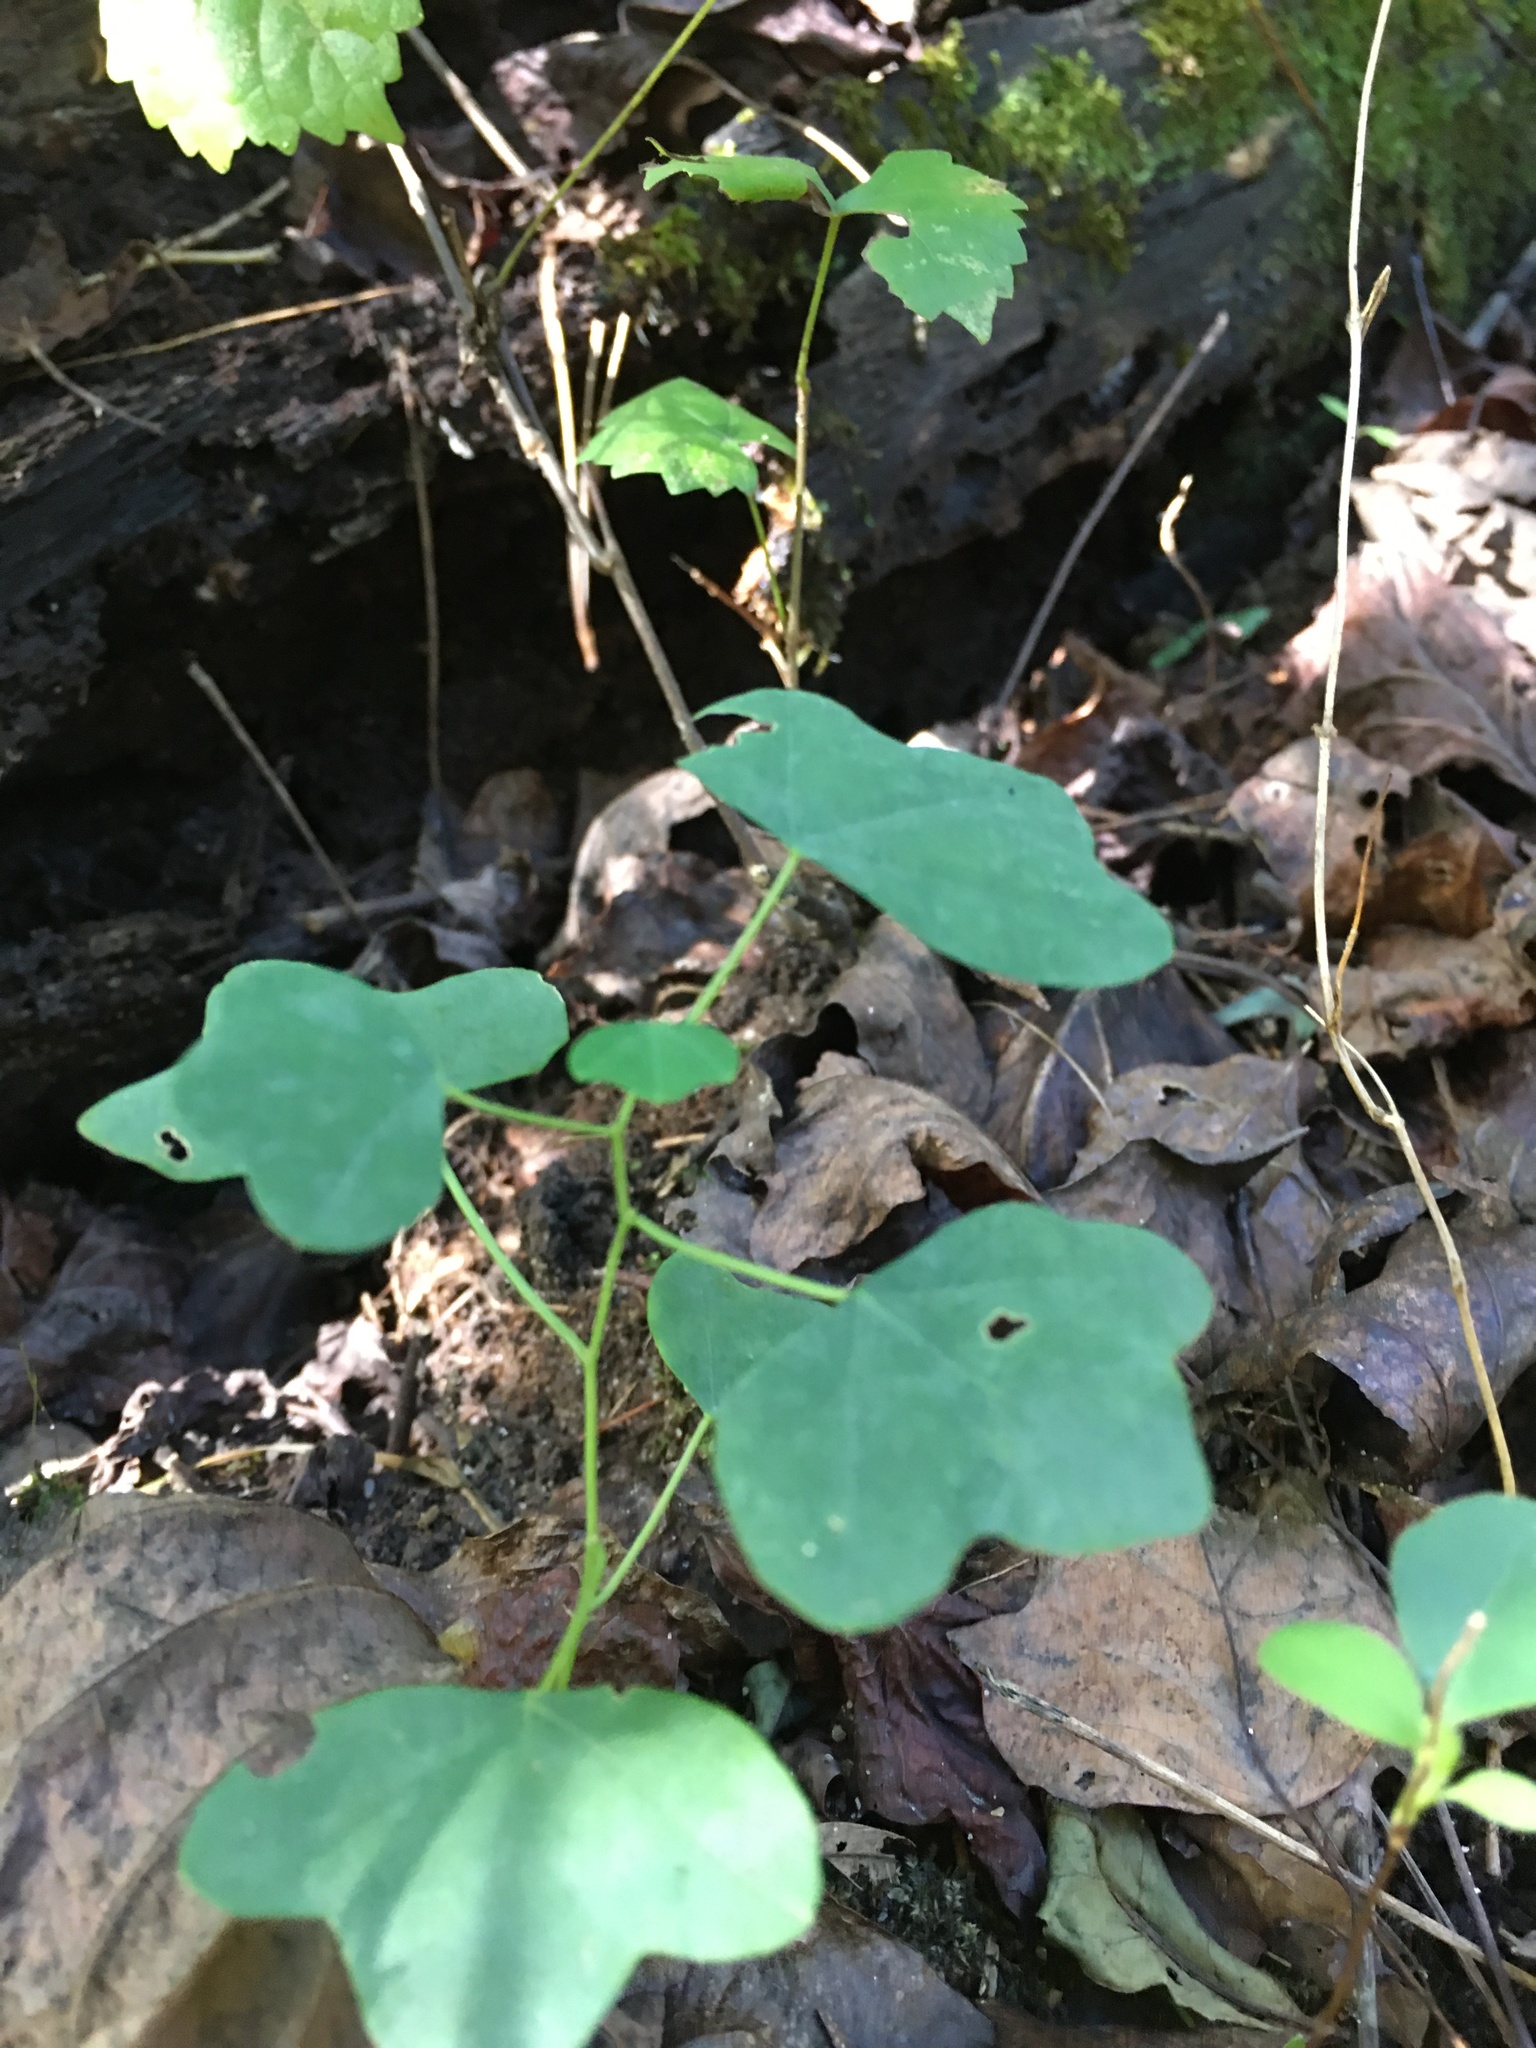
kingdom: Plantae
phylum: Tracheophyta
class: Magnoliopsida
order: Malpighiales
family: Passifloraceae
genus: Passiflora
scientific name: Passiflora lutea
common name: Yellow passionflower
